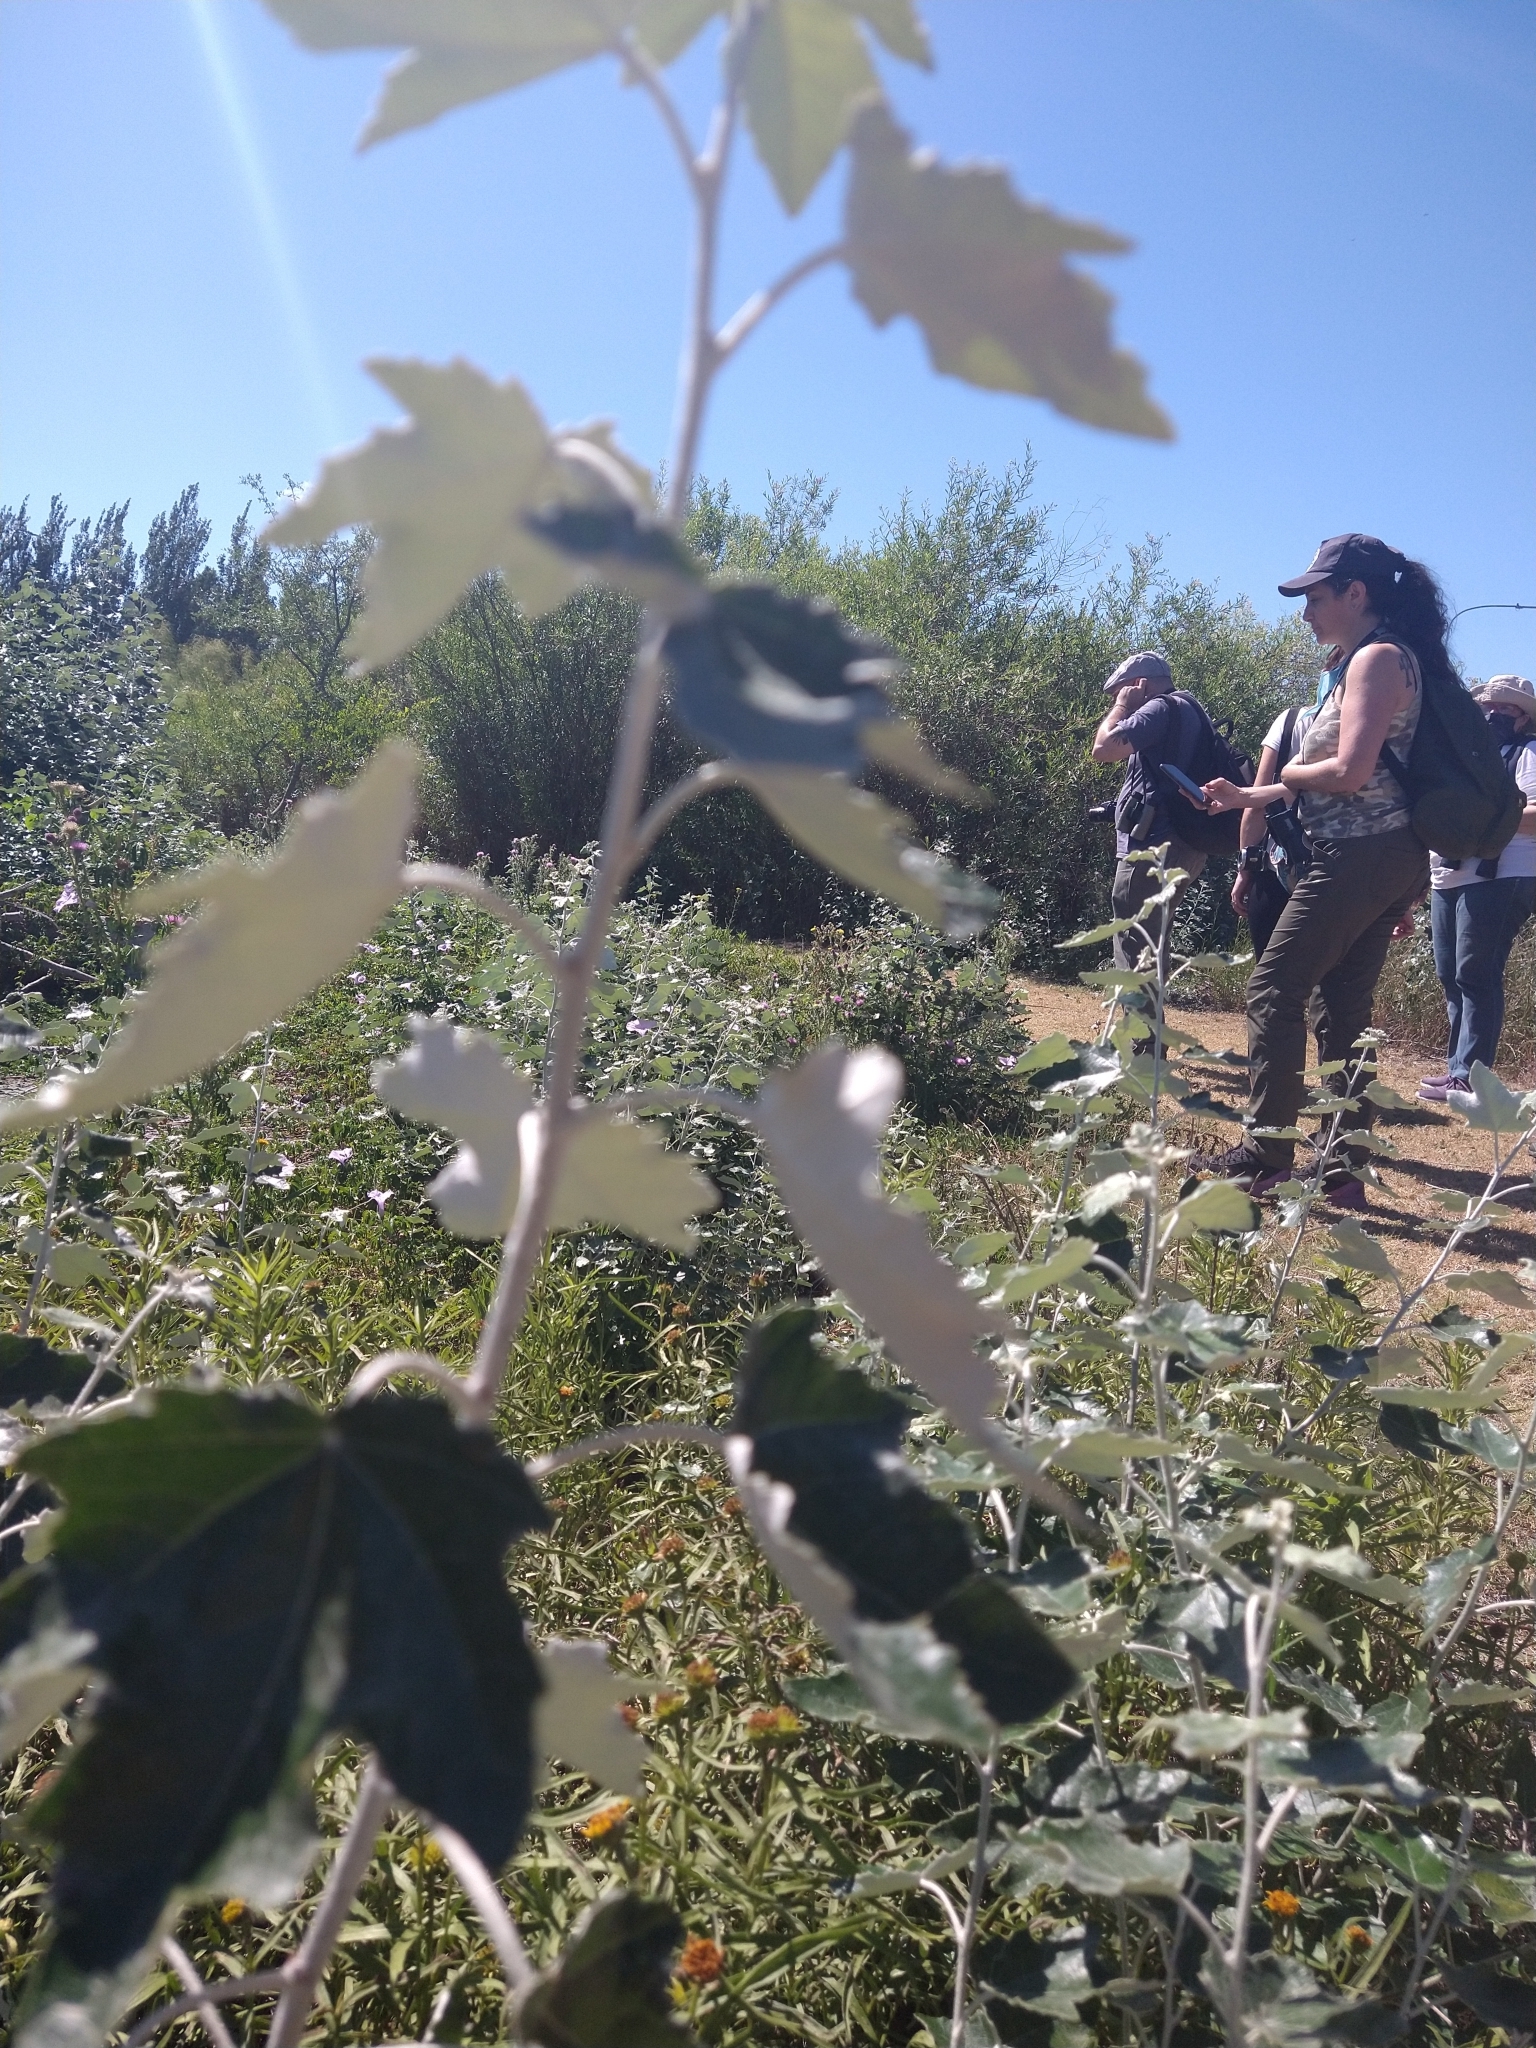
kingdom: Plantae
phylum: Tracheophyta
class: Magnoliopsida
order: Malpighiales
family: Salicaceae
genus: Populus
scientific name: Populus alba
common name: White poplar
